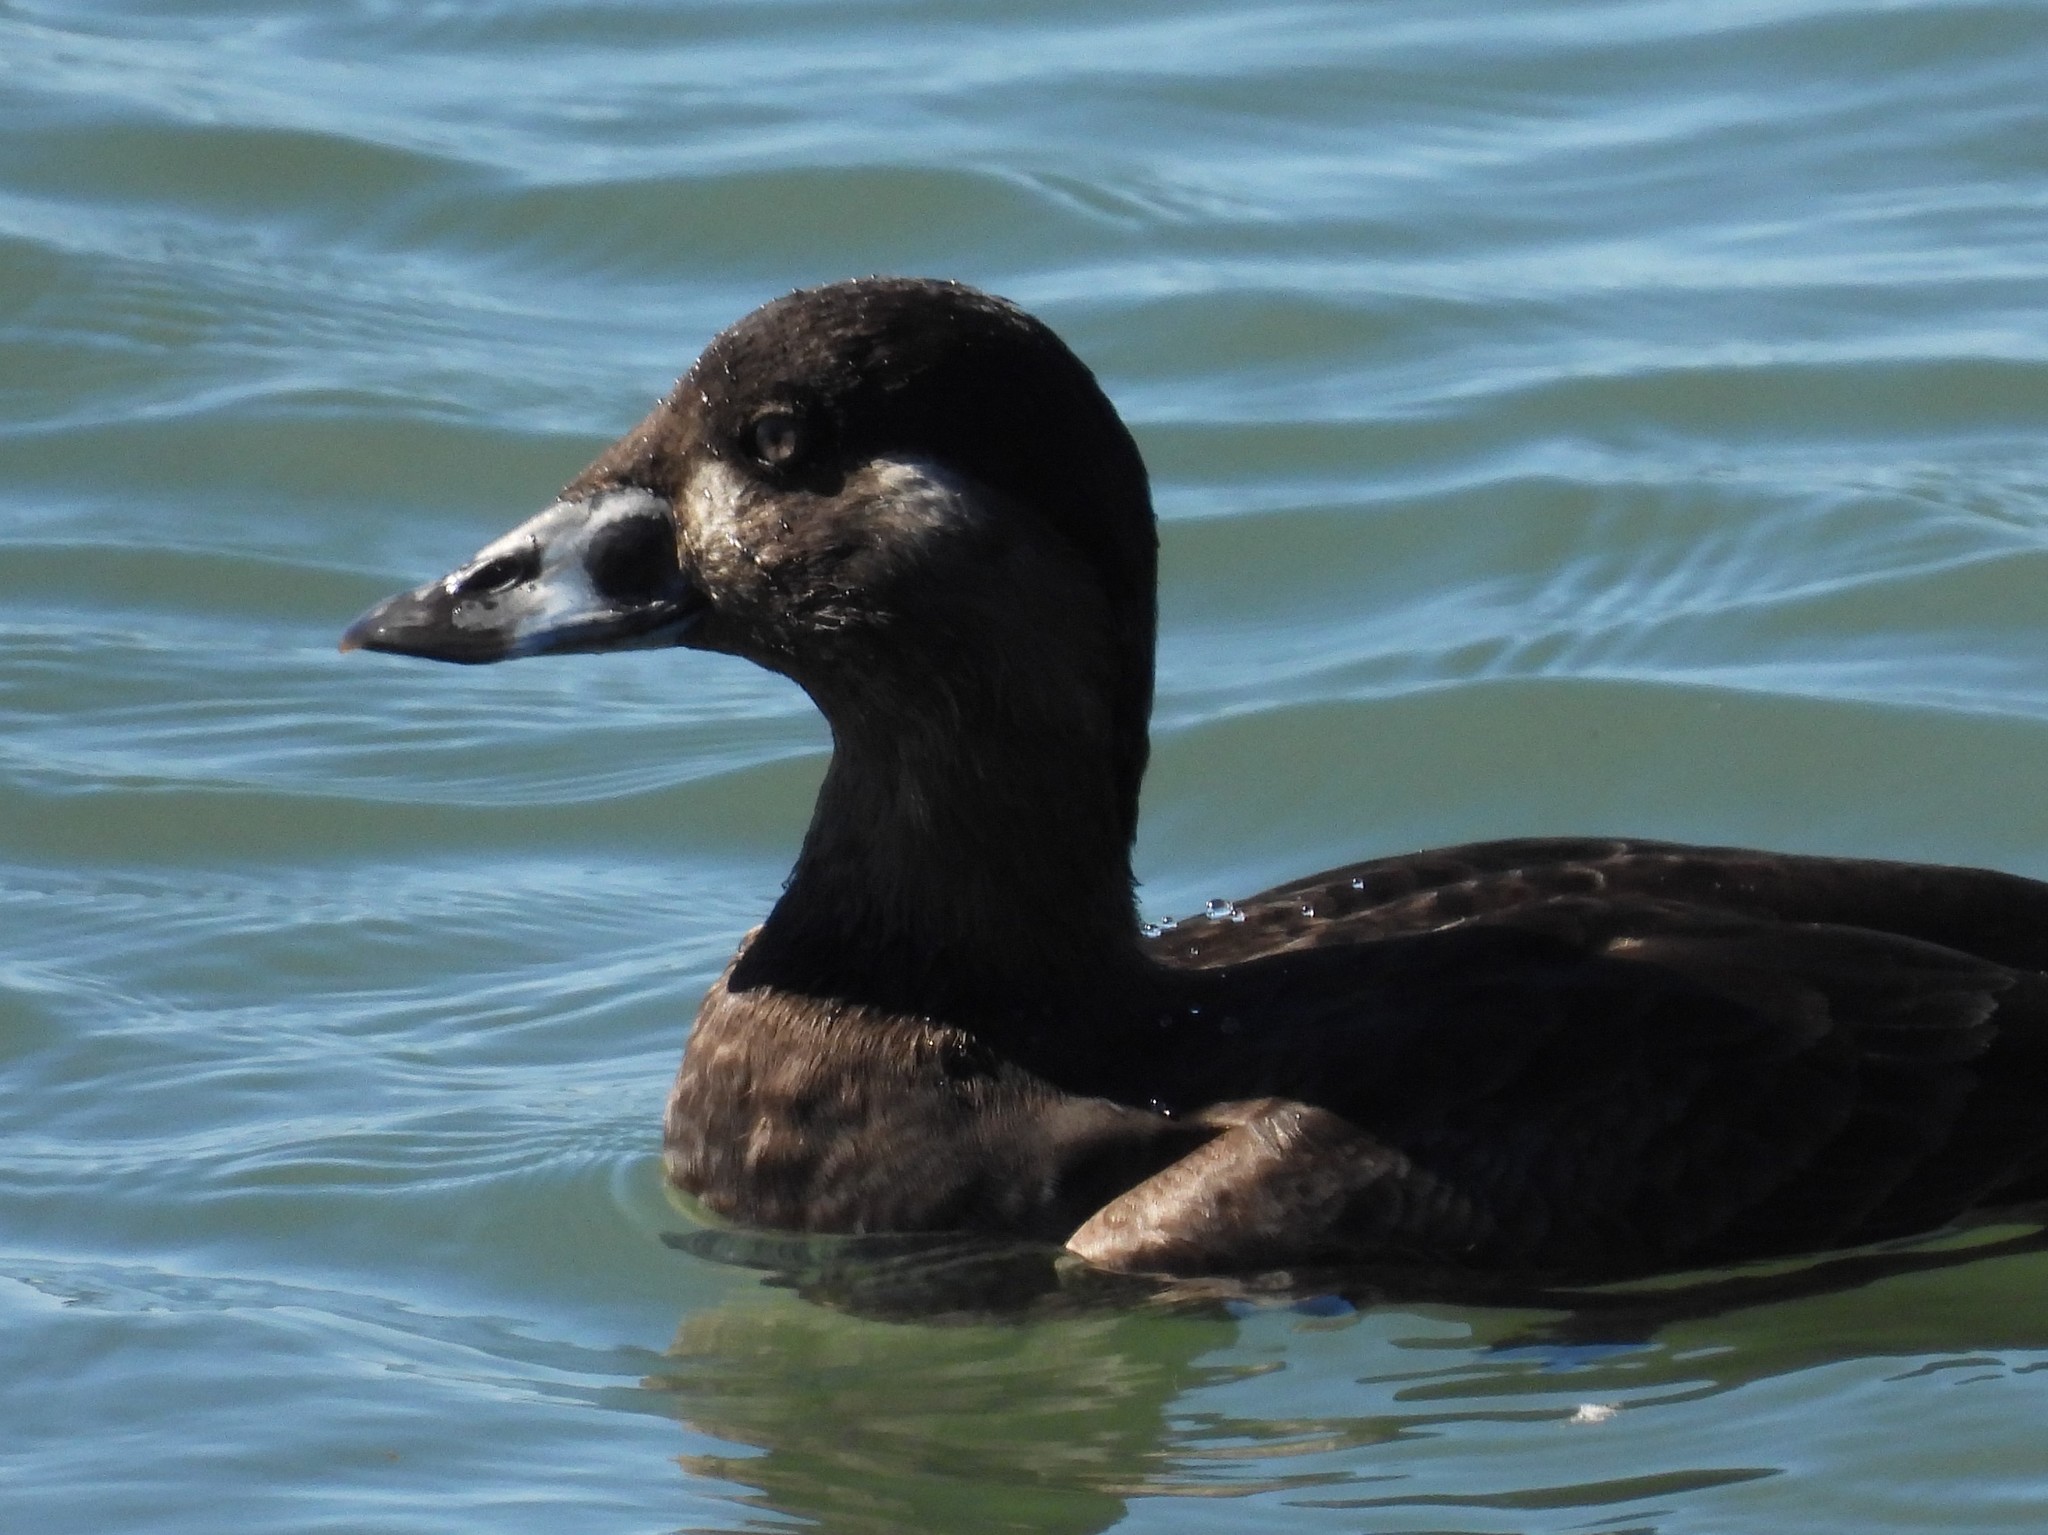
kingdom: Animalia
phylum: Chordata
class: Aves
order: Anseriformes
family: Anatidae
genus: Melanitta
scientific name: Melanitta perspicillata
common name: Surf scoter
